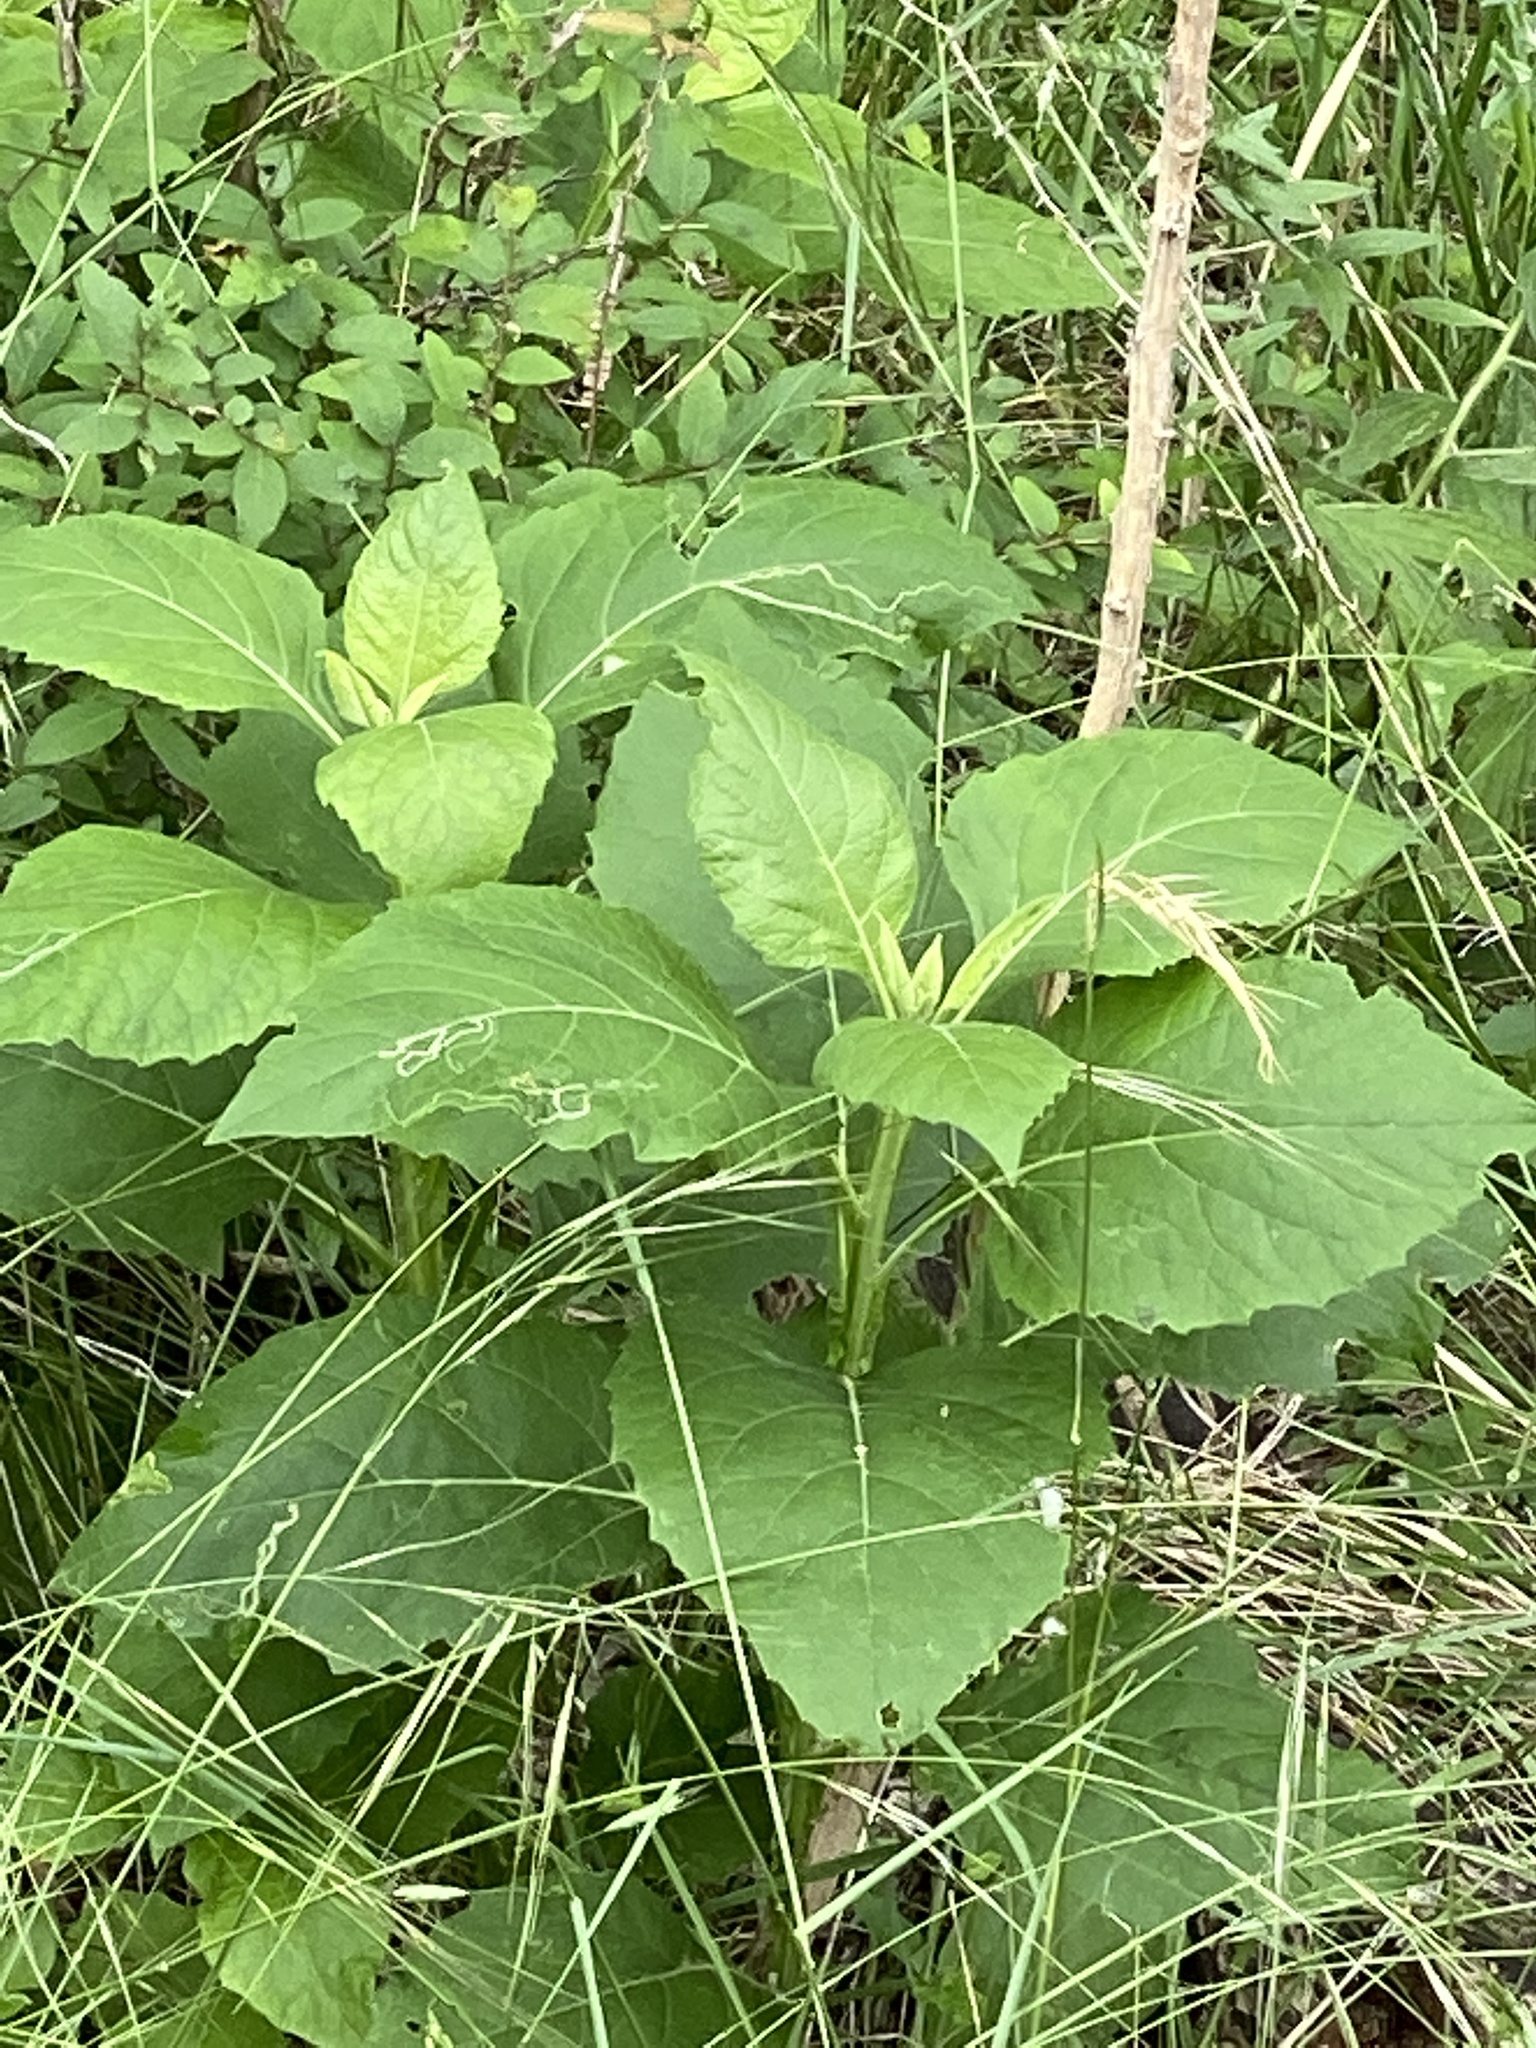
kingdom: Plantae
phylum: Tracheophyta
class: Magnoliopsida
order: Asterales
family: Asteraceae
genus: Verbesina
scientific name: Verbesina virginica
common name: Frostweed
